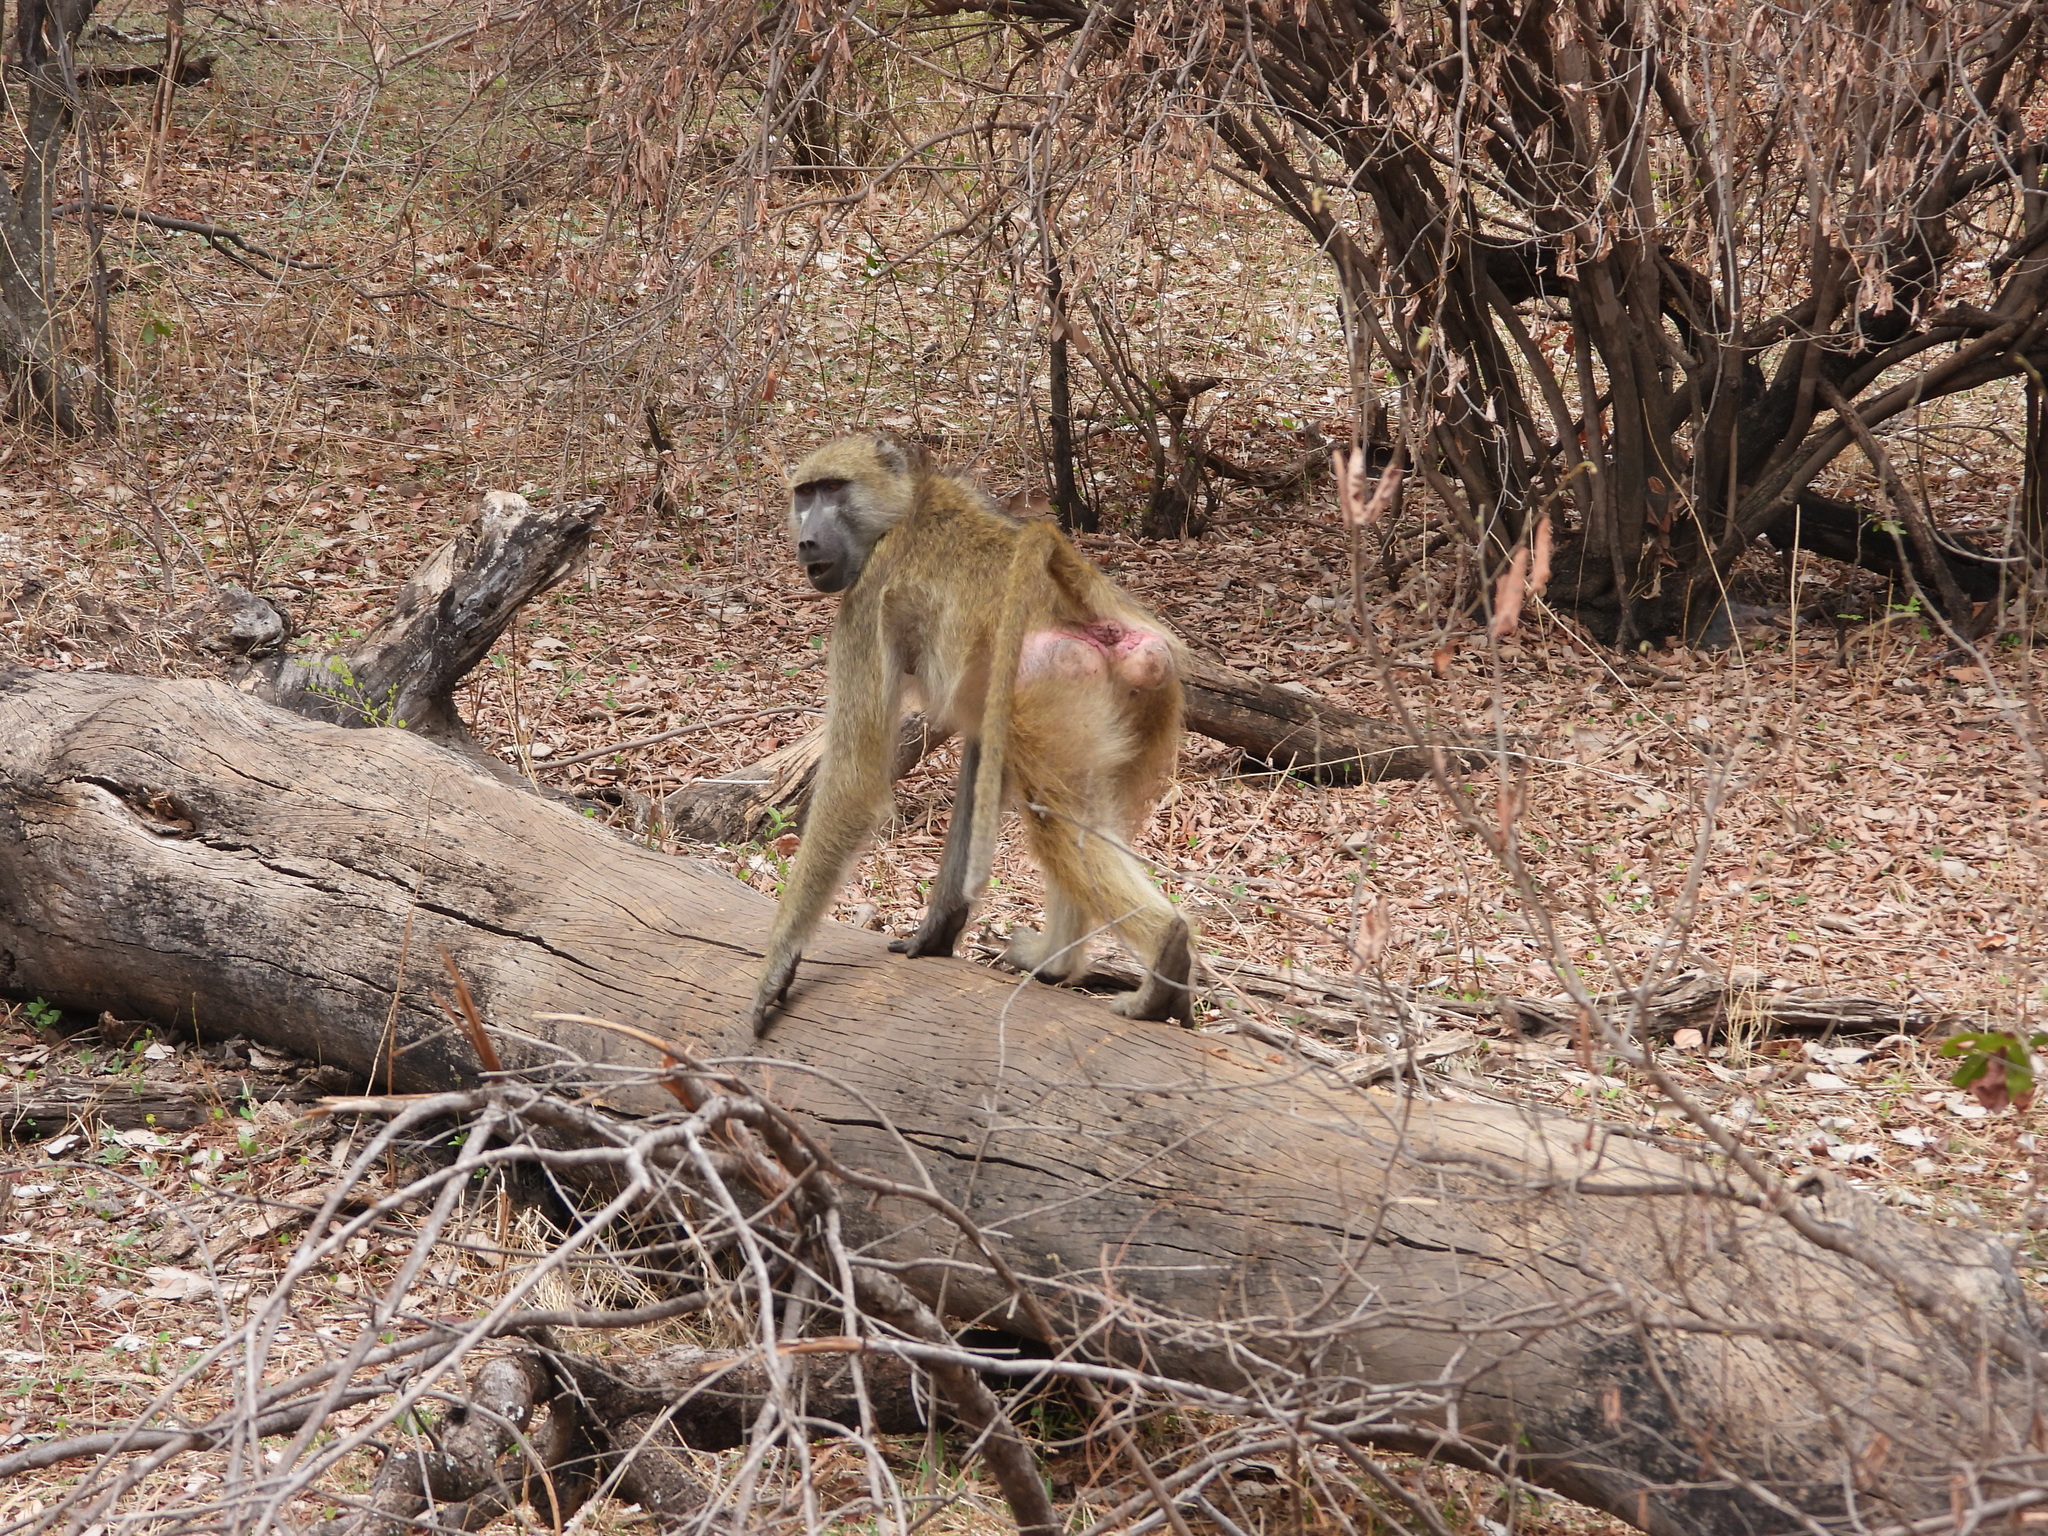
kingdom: Animalia
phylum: Chordata
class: Mammalia
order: Primates
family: Cercopithecidae
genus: Papio
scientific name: Papio ursinus
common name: Chacma baboon
